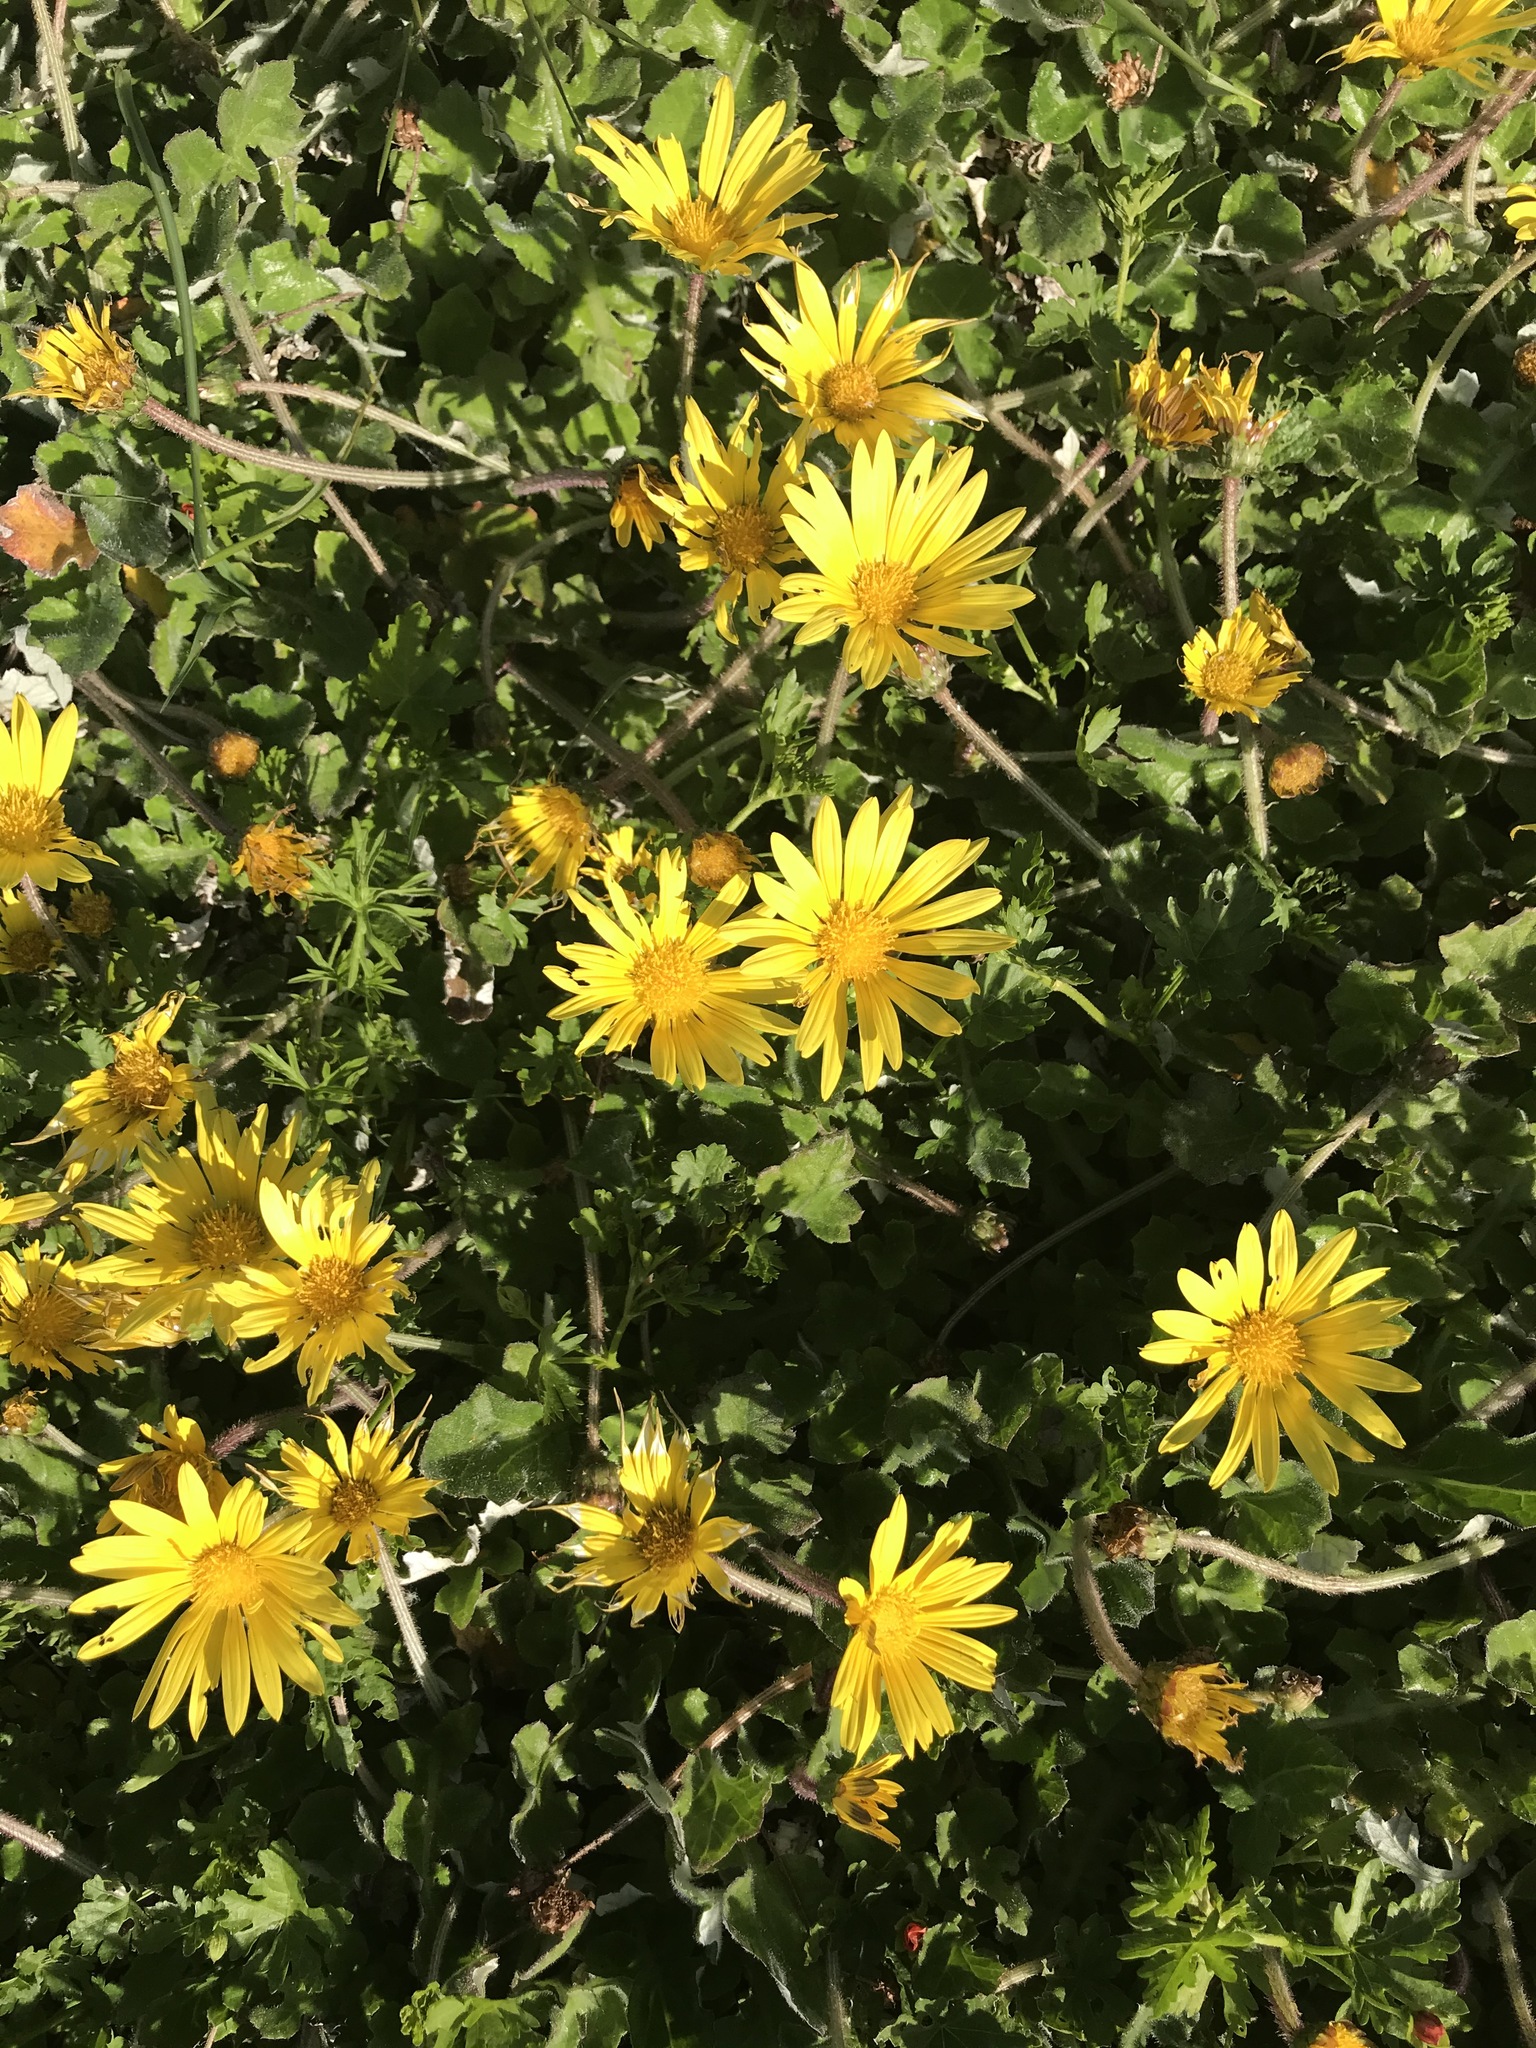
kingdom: Plantae
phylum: Tracheophyta
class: Magnoliopsida
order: Asterales
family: Asteraceae
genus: Arctotheca
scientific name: Arctotheca prostrata
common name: Capeweed
